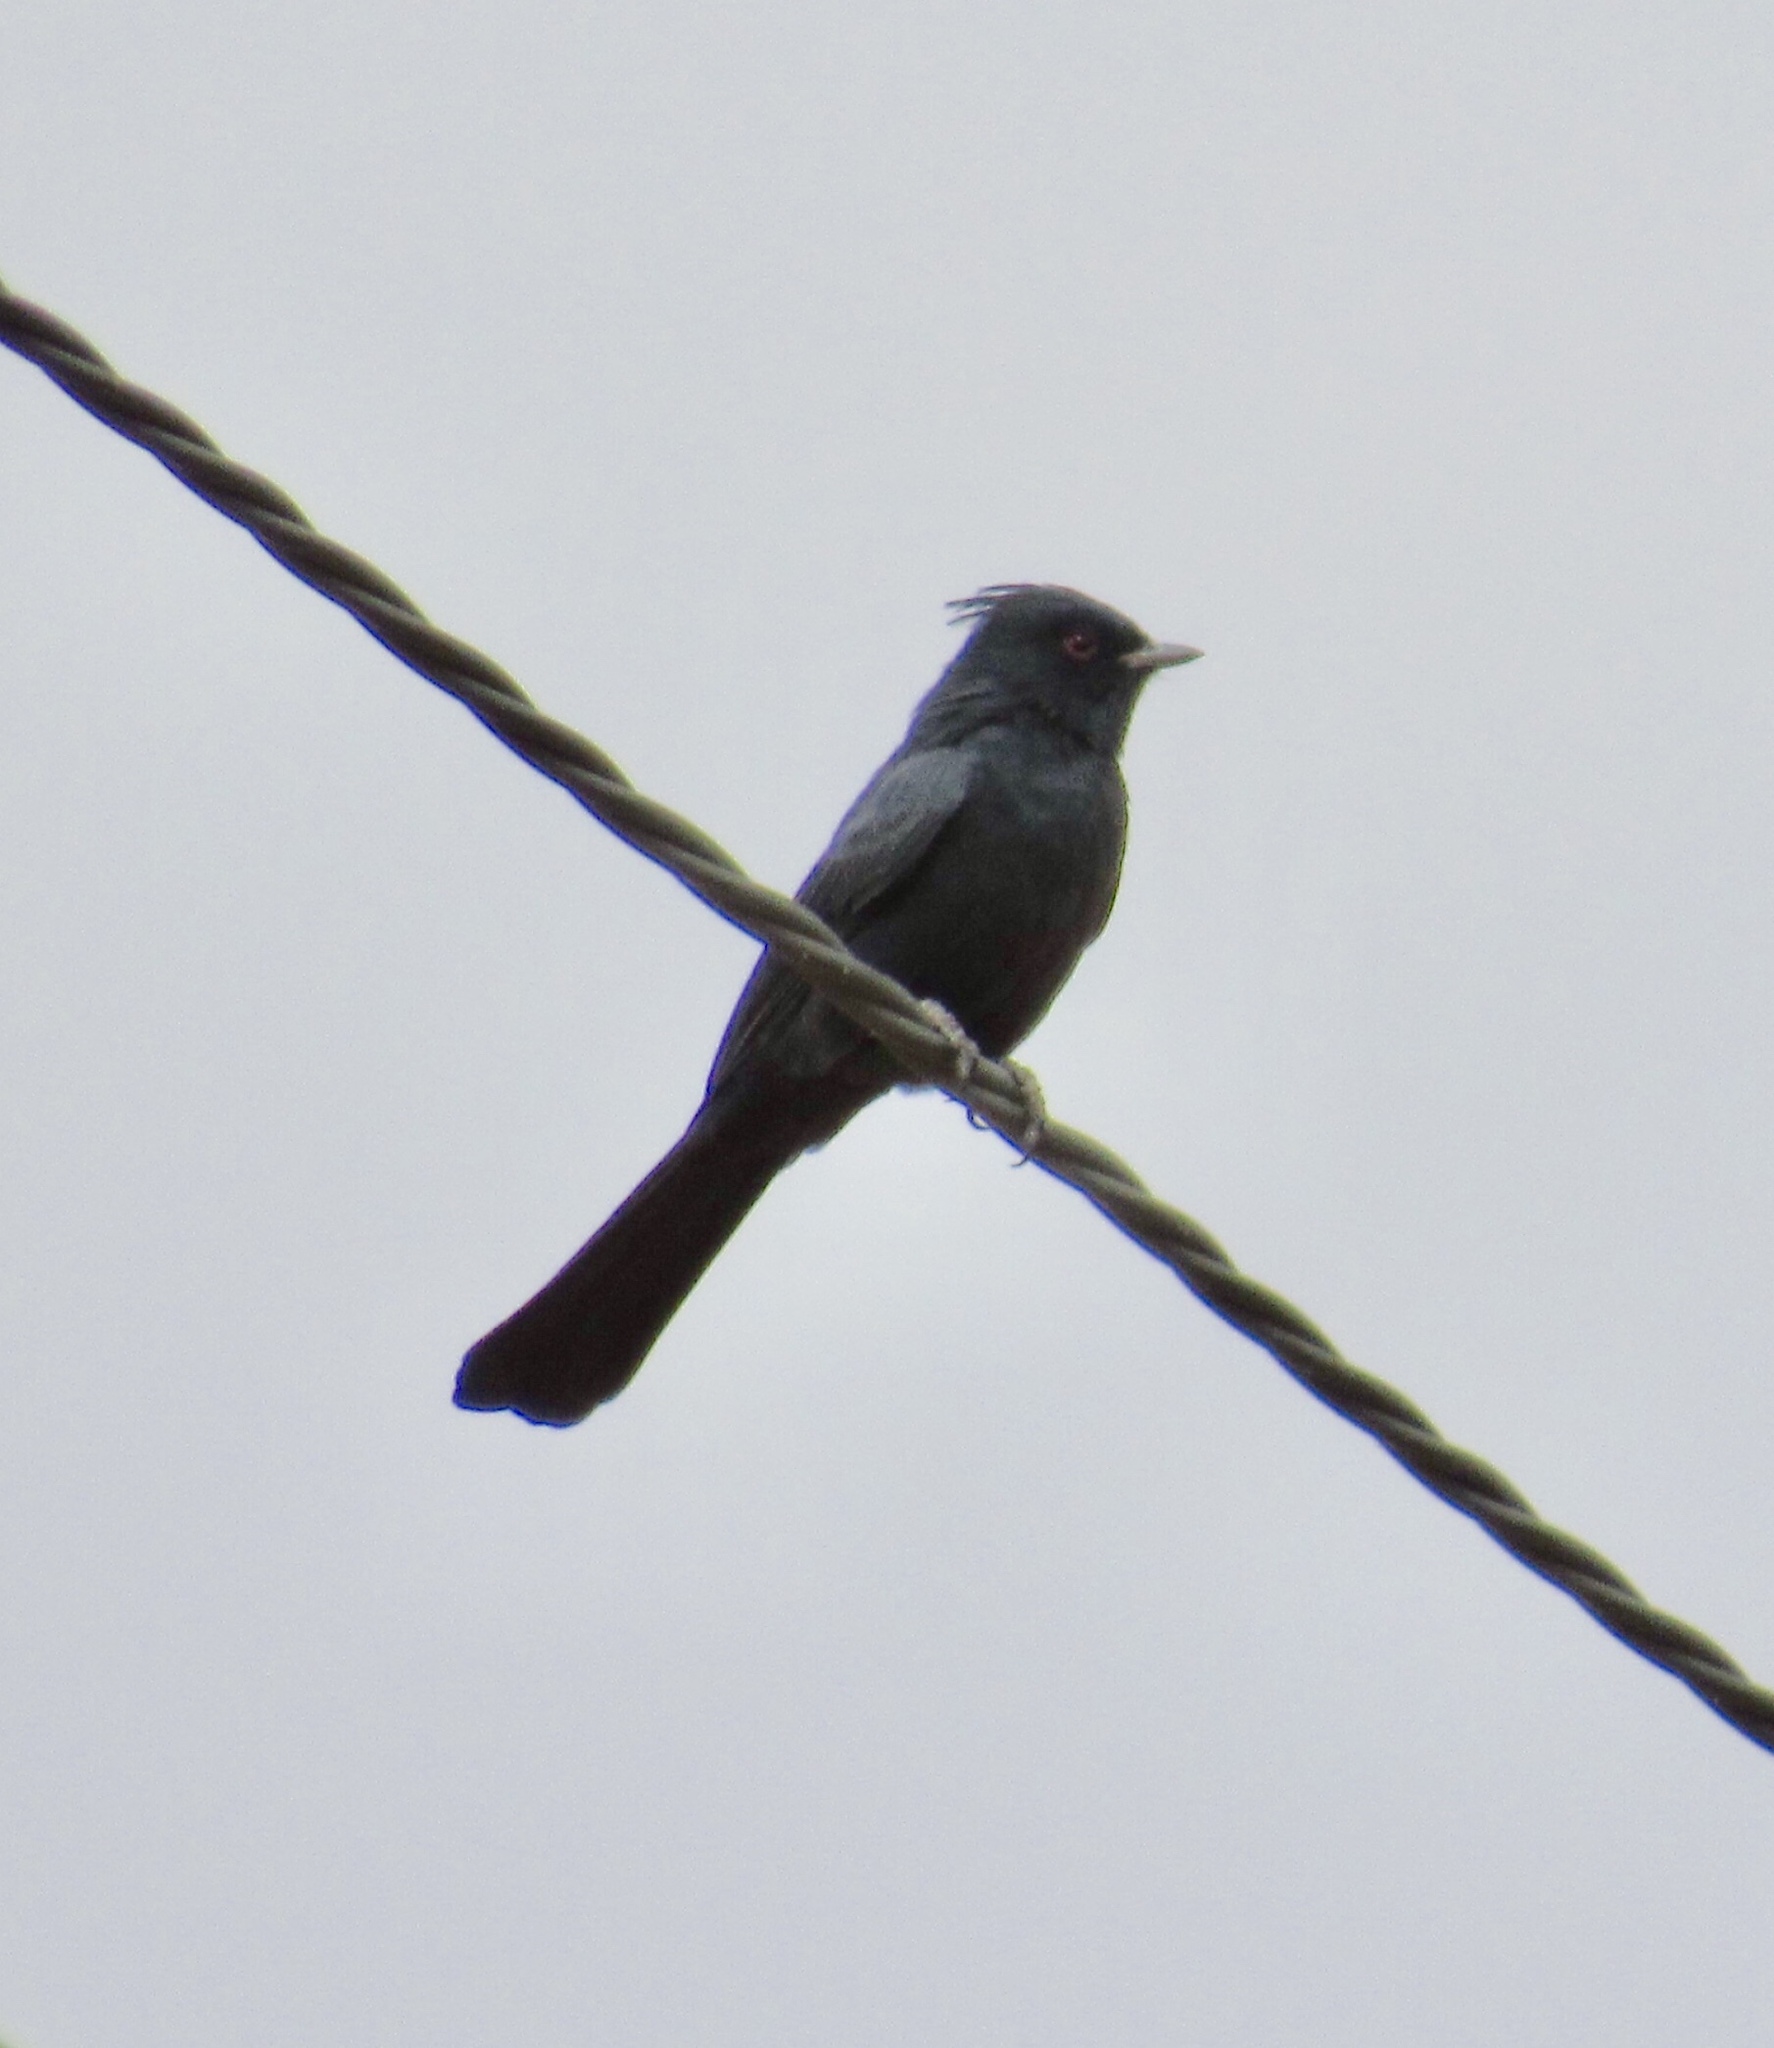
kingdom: Animalia
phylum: Chordata
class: Aves
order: Passeriformes
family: Ptilogonatidae
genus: Phainopepla
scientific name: Phainopepla nitens
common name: Phainopepla
